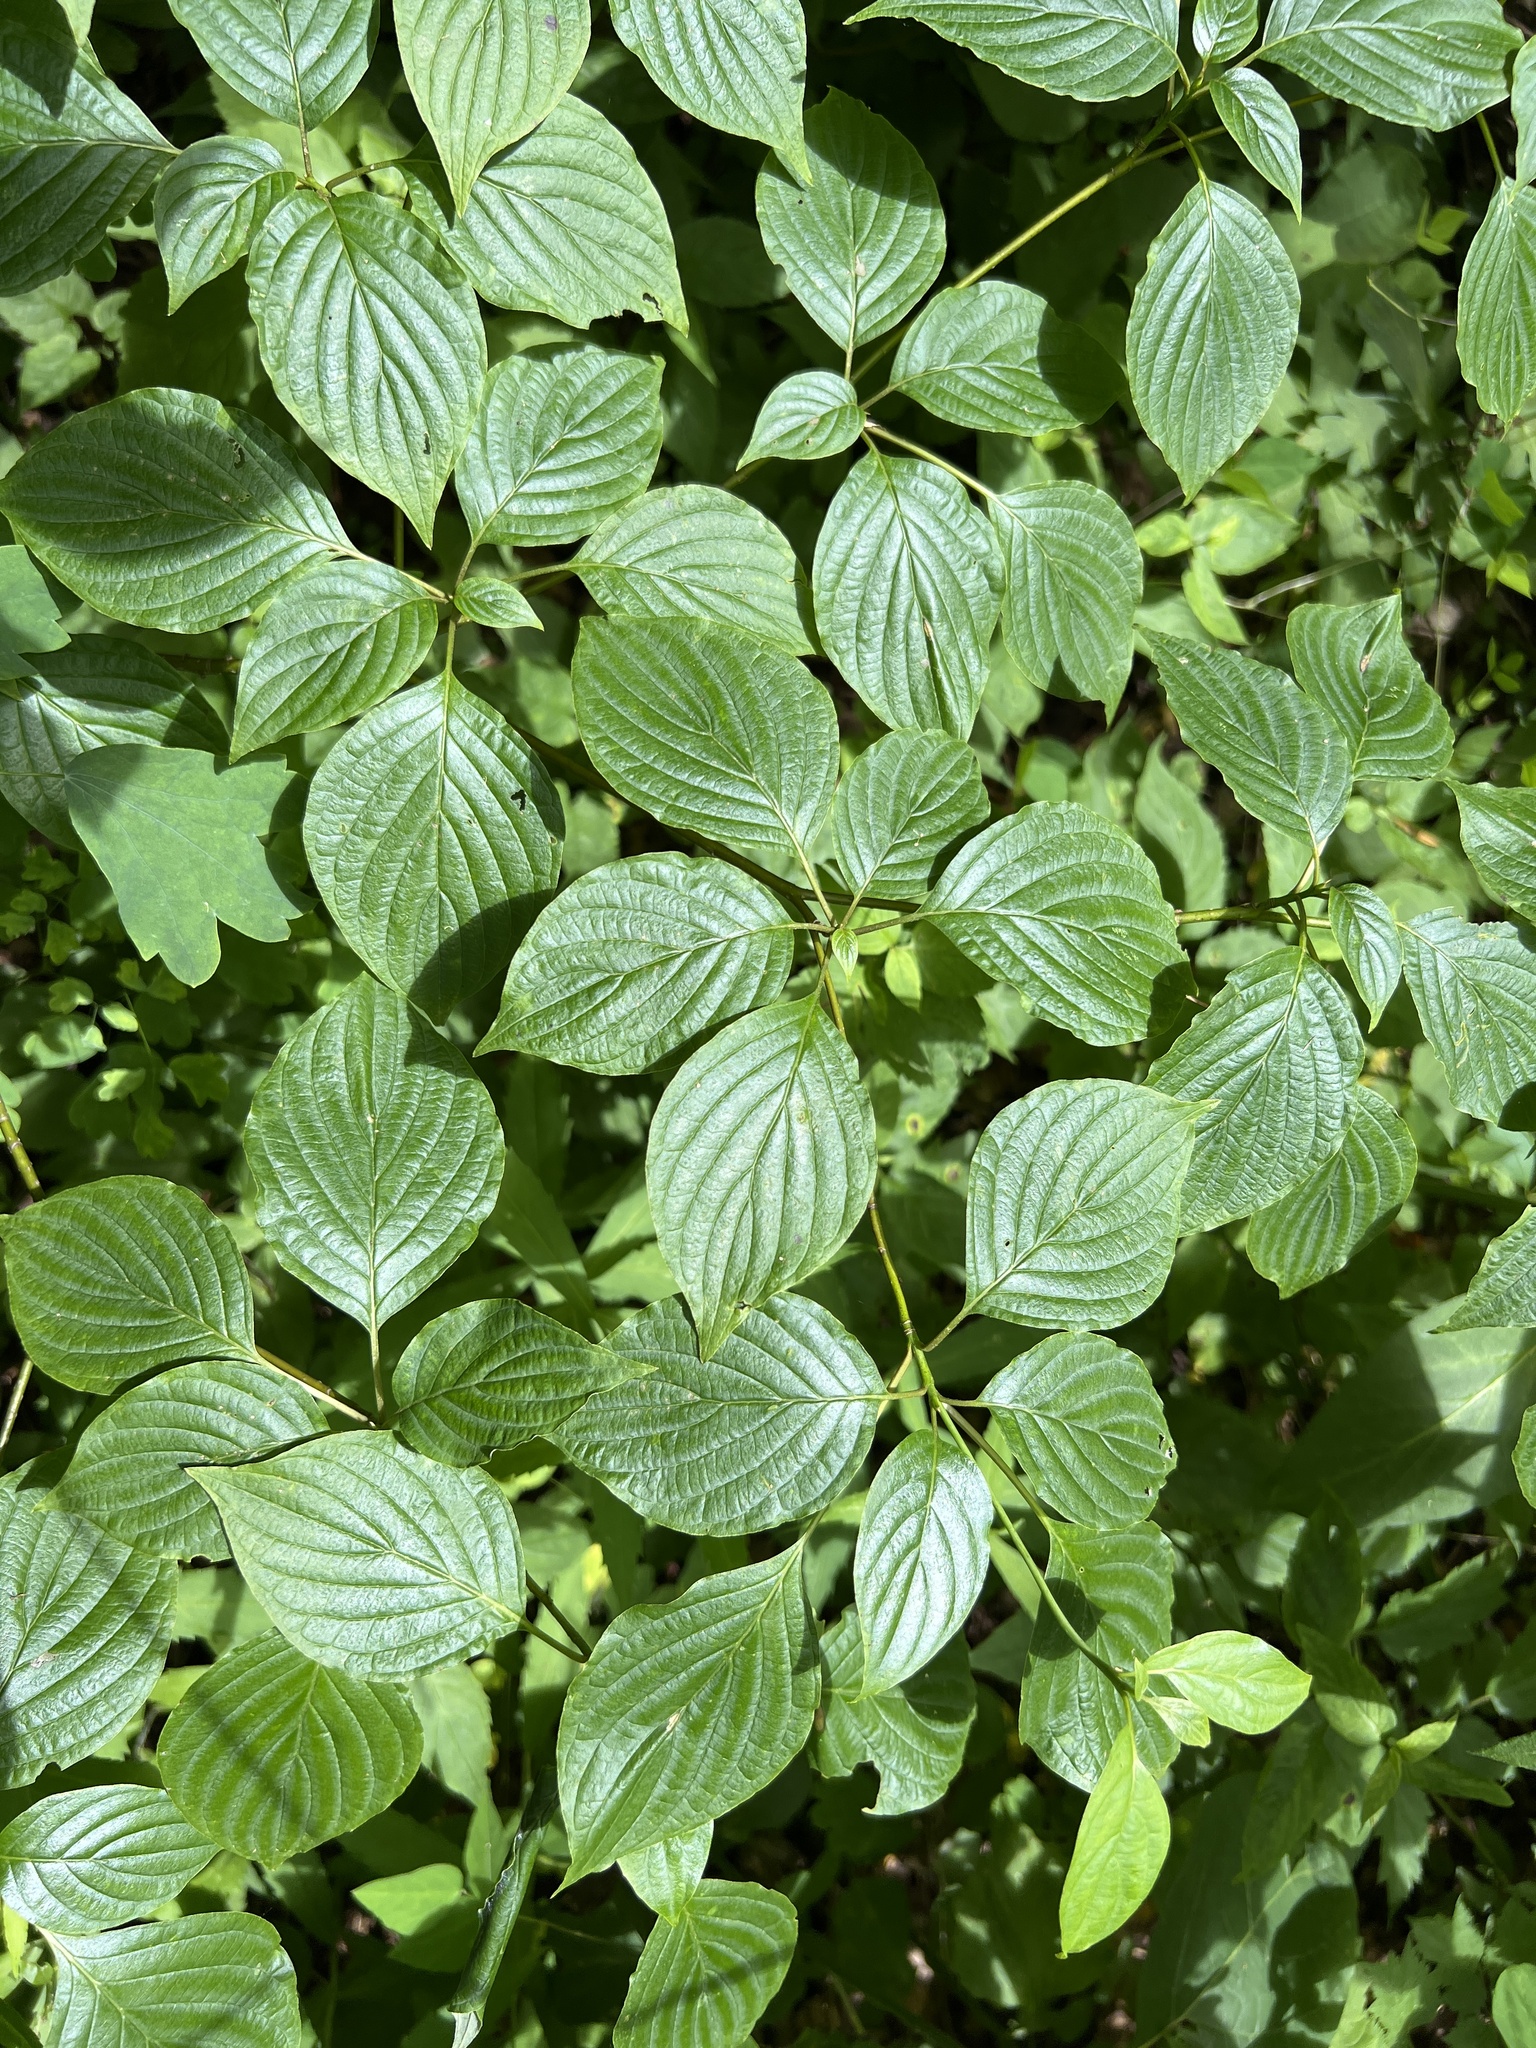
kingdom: Plantae
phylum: Tracheophyta
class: Magnoliopsida
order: Cornales
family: Cornaceae
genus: Cornus
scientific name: Cornus alternifolia
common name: Pagoda dogwood
